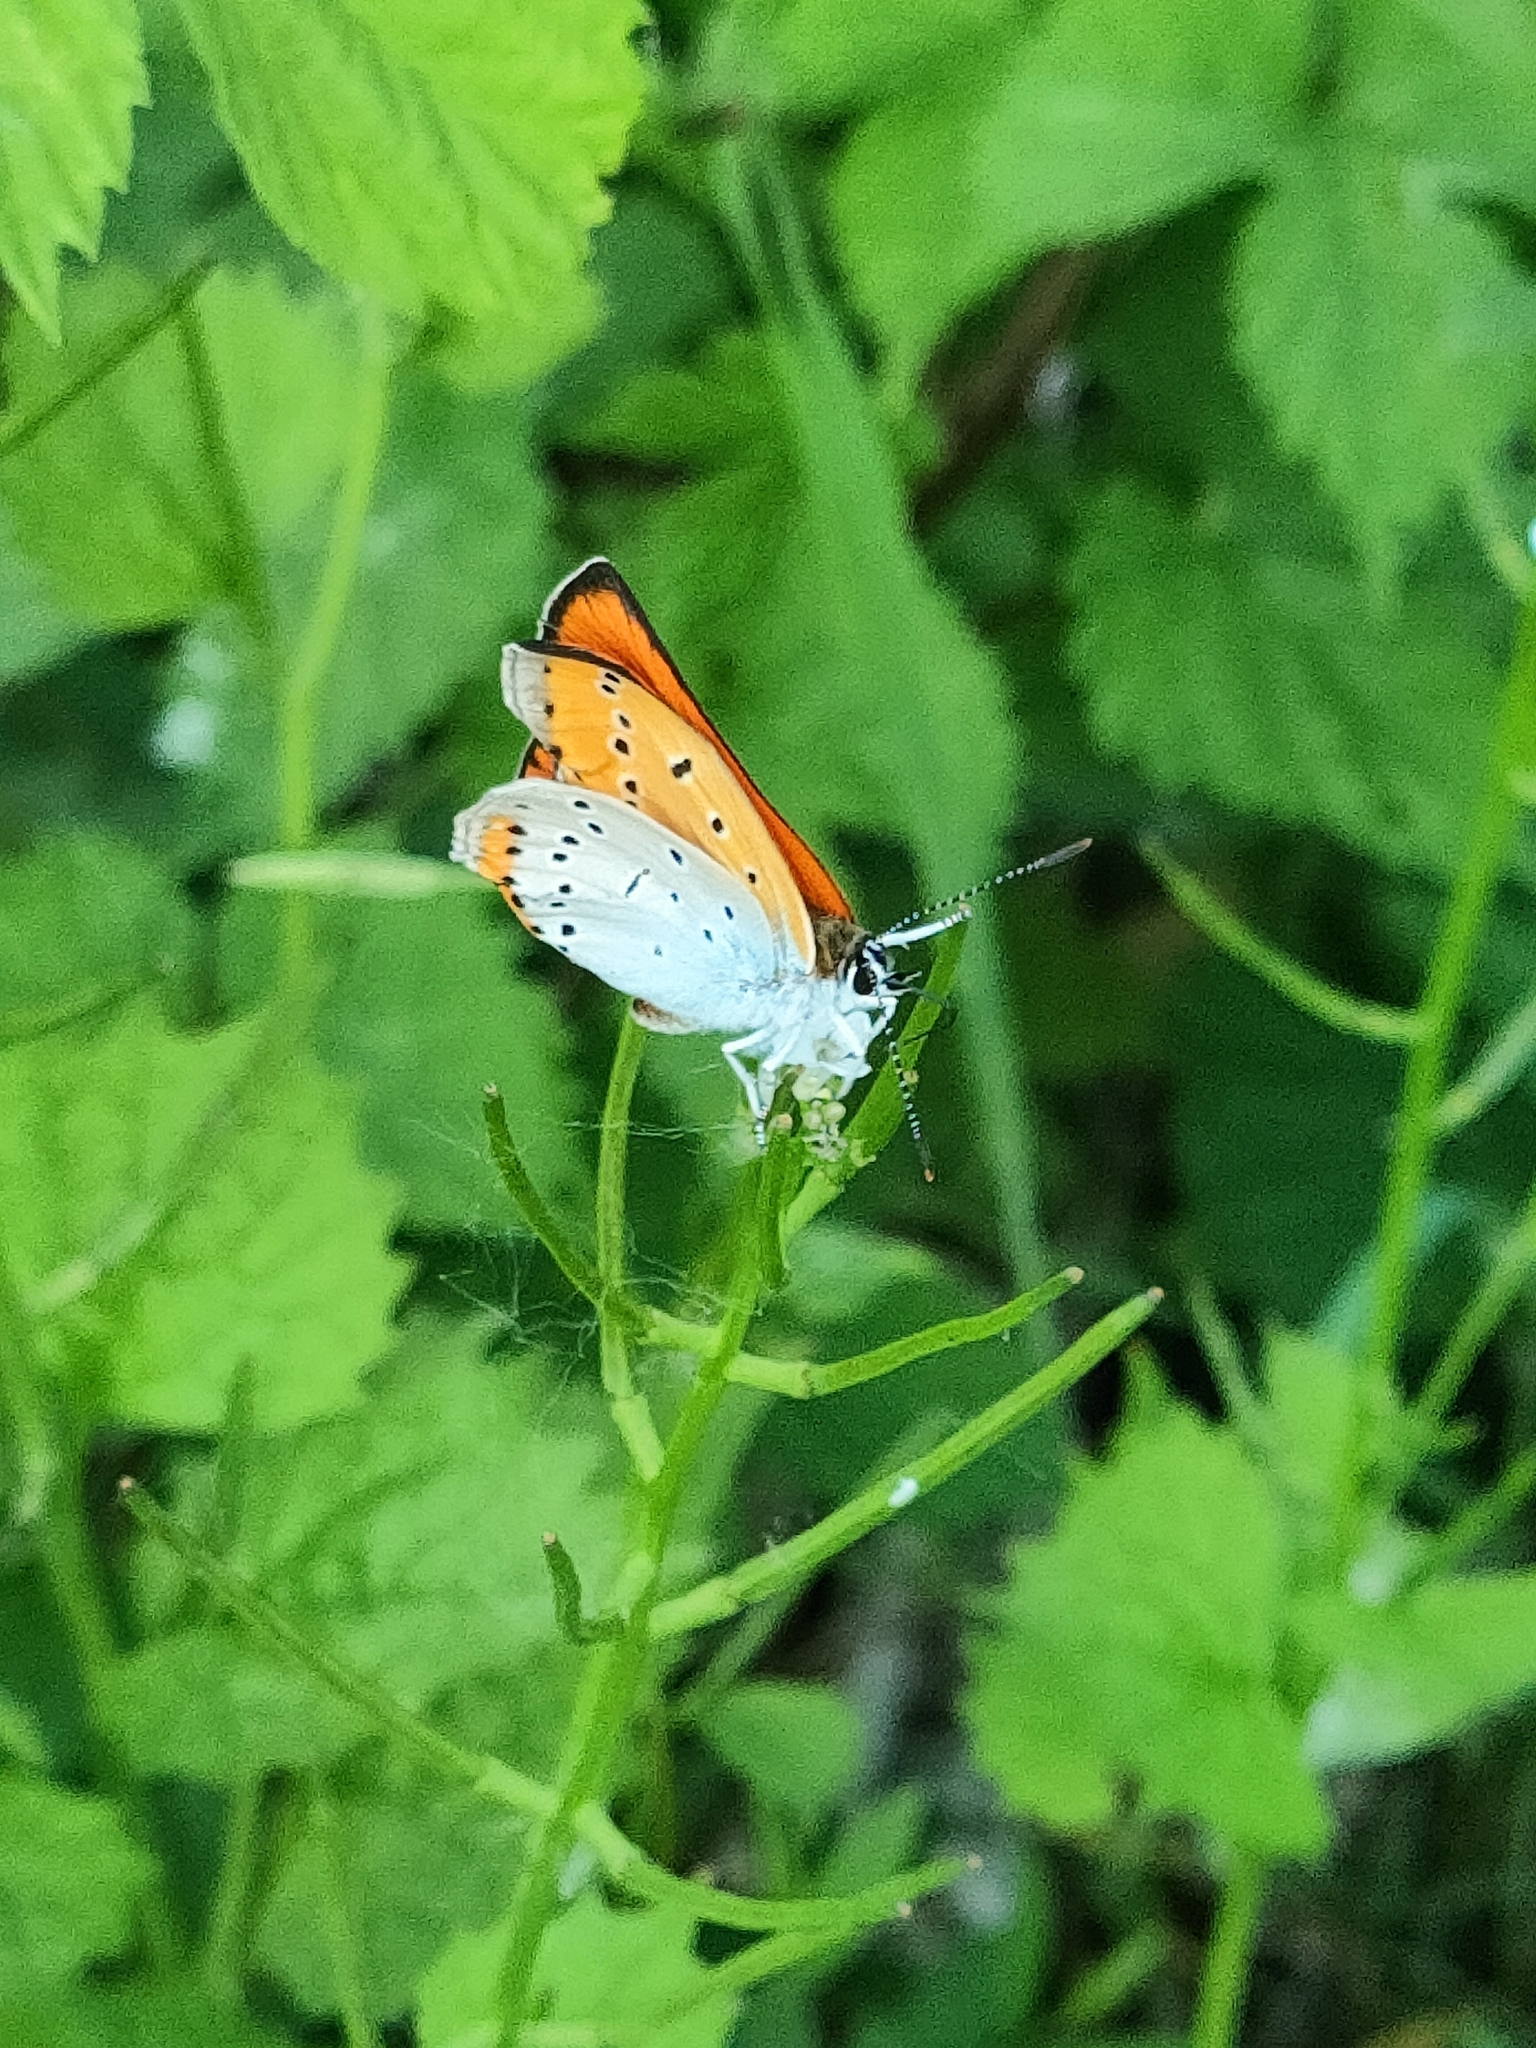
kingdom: Animalia
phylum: Arthropoda
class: Insecta
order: Lepidoptera
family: Lycaenidae
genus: Lycaena
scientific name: Lycaena dispar
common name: Large copper
